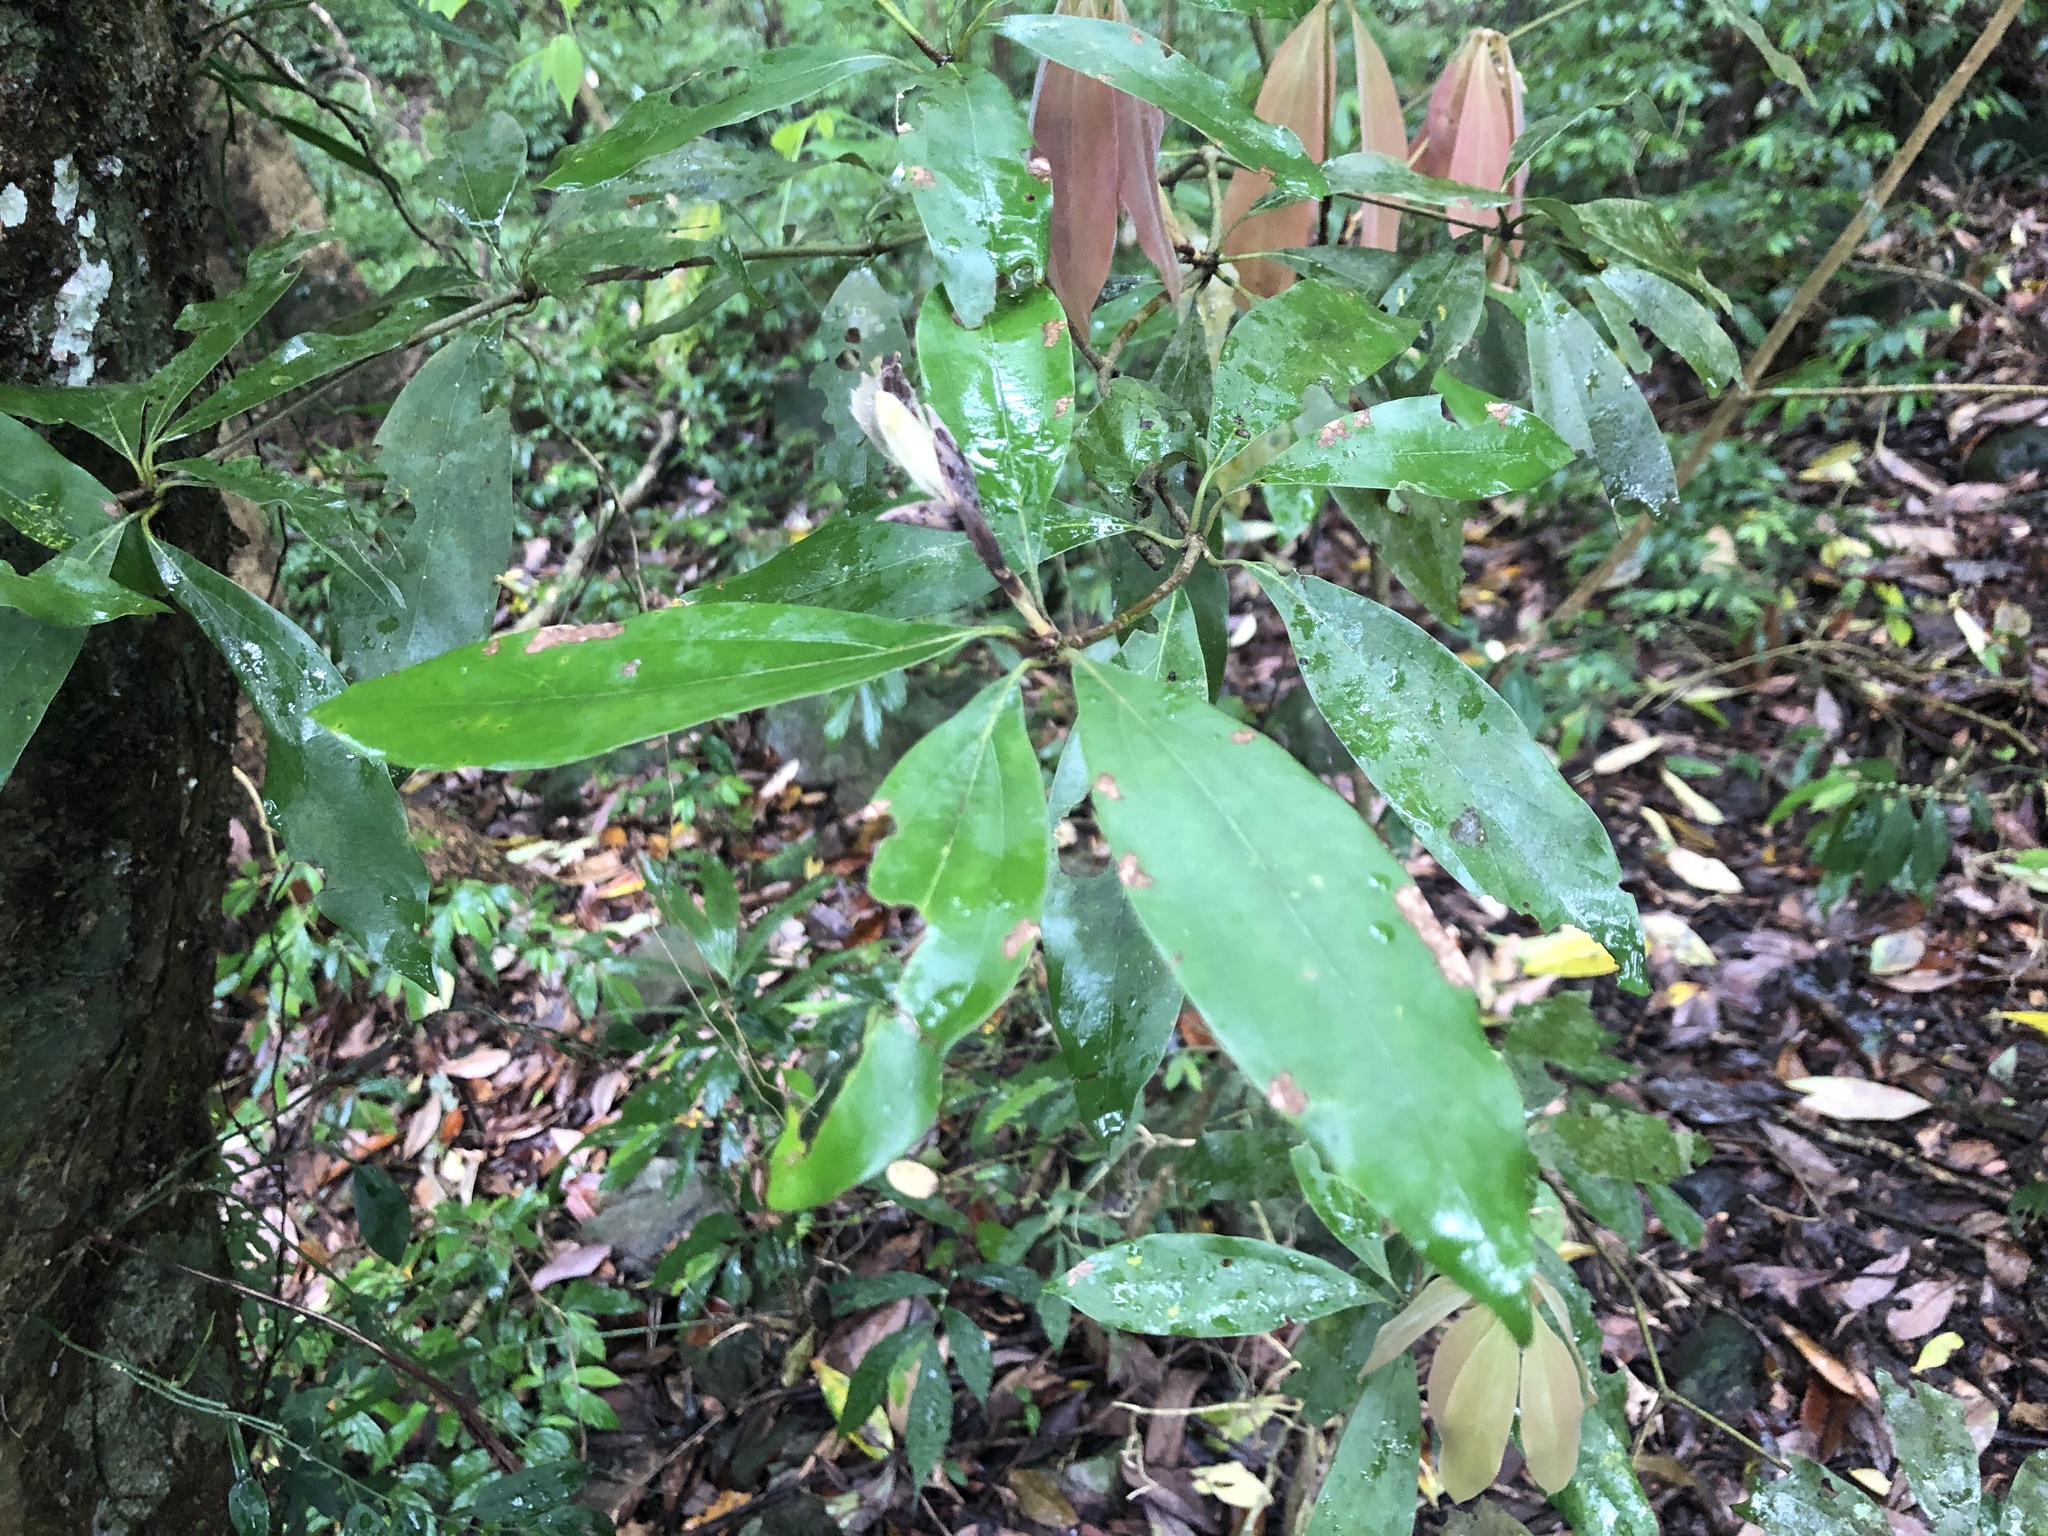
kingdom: Plantae
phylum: Tracheophyta
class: Magnoliopsida
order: Laurales
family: Lauraceae
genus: Neolitsea
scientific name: Neolitsea konishii
